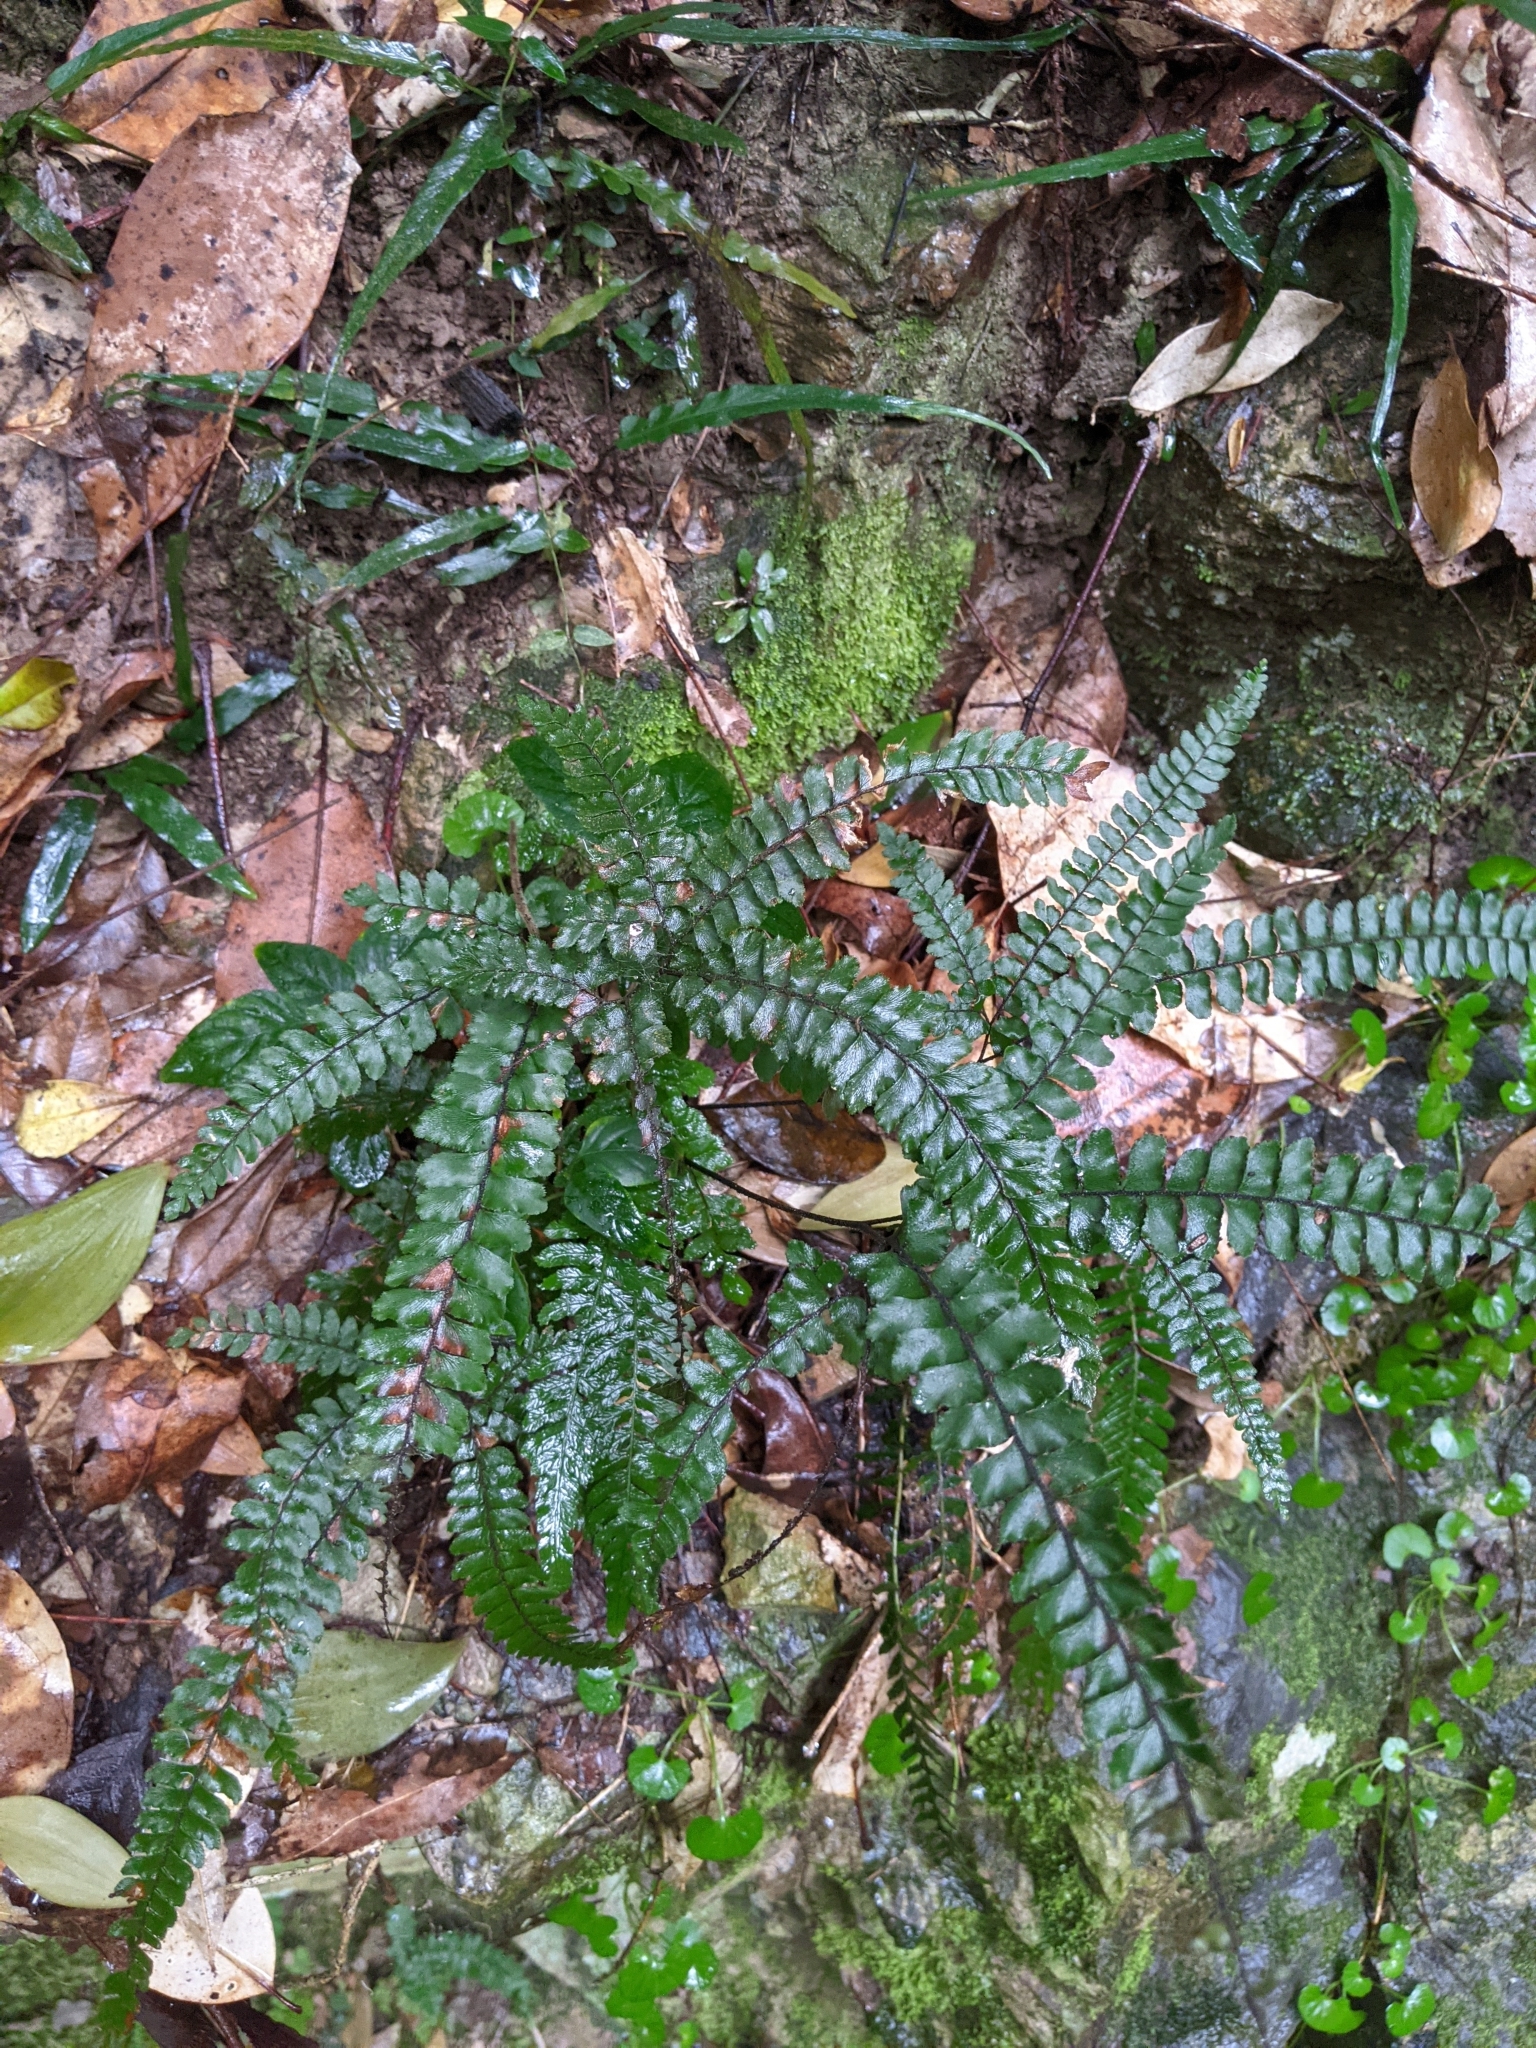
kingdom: Plantae
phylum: Tracheophyta
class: Polypodiopsida
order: Polypodiales
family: Pteridaceae
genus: Adiantum
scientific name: Adiantum hispidulum
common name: Rough maidenhair
